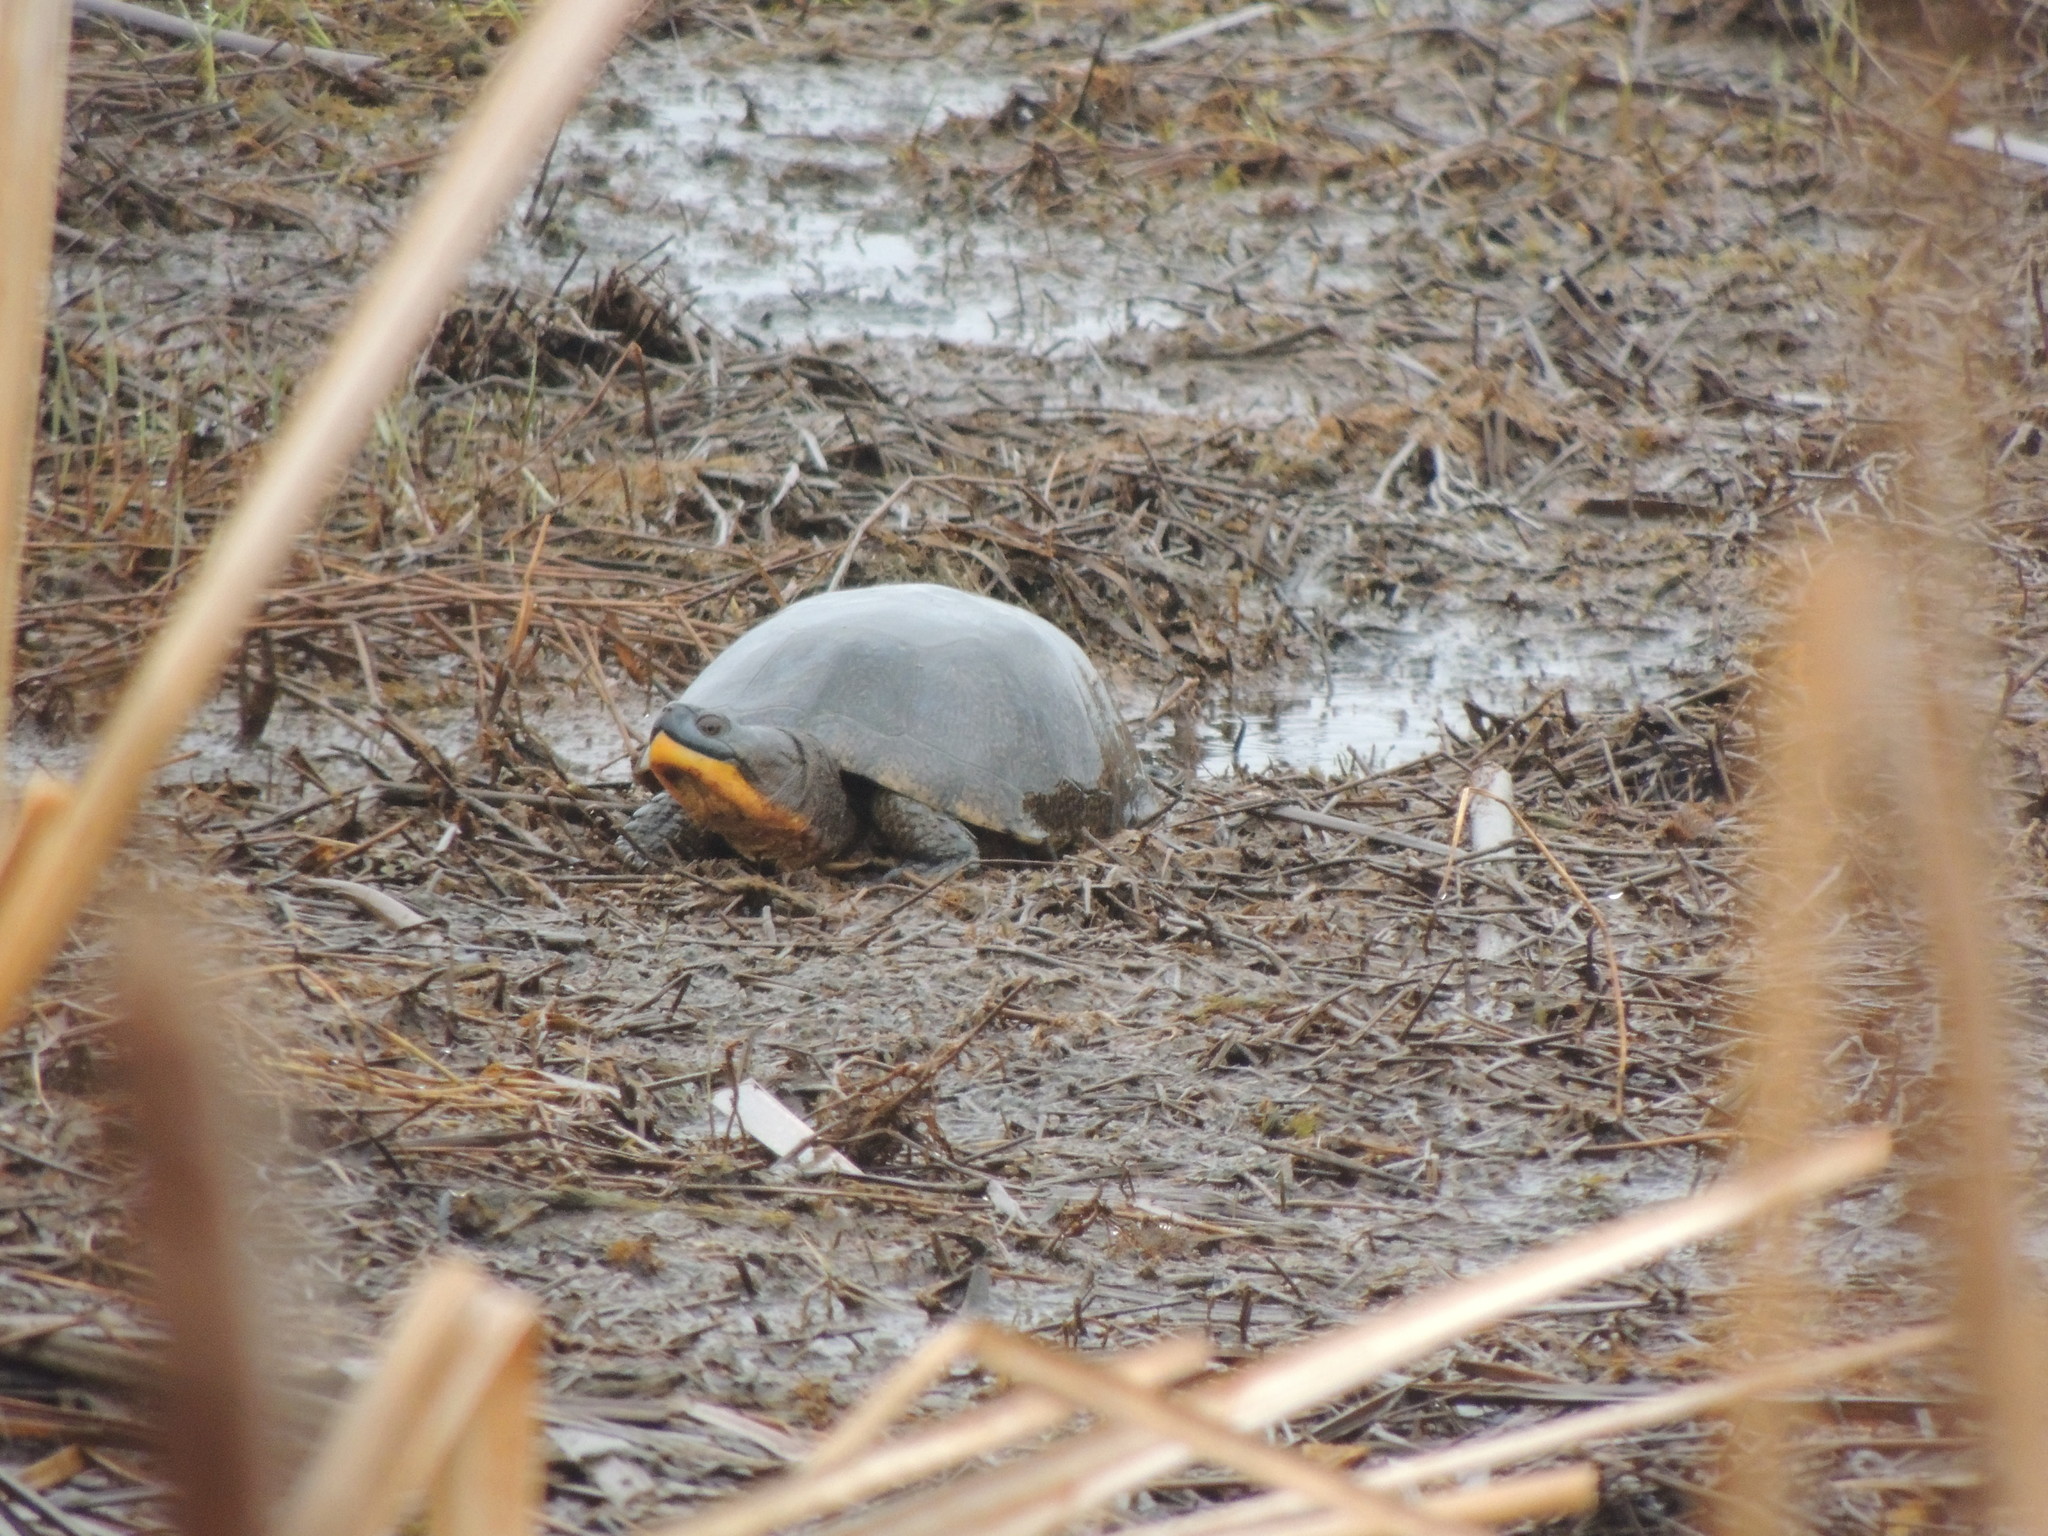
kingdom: Animalia
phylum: Chordata
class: Testudines
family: Emydidae
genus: Emys
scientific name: Emys blandingii
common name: Blanding's turtle
